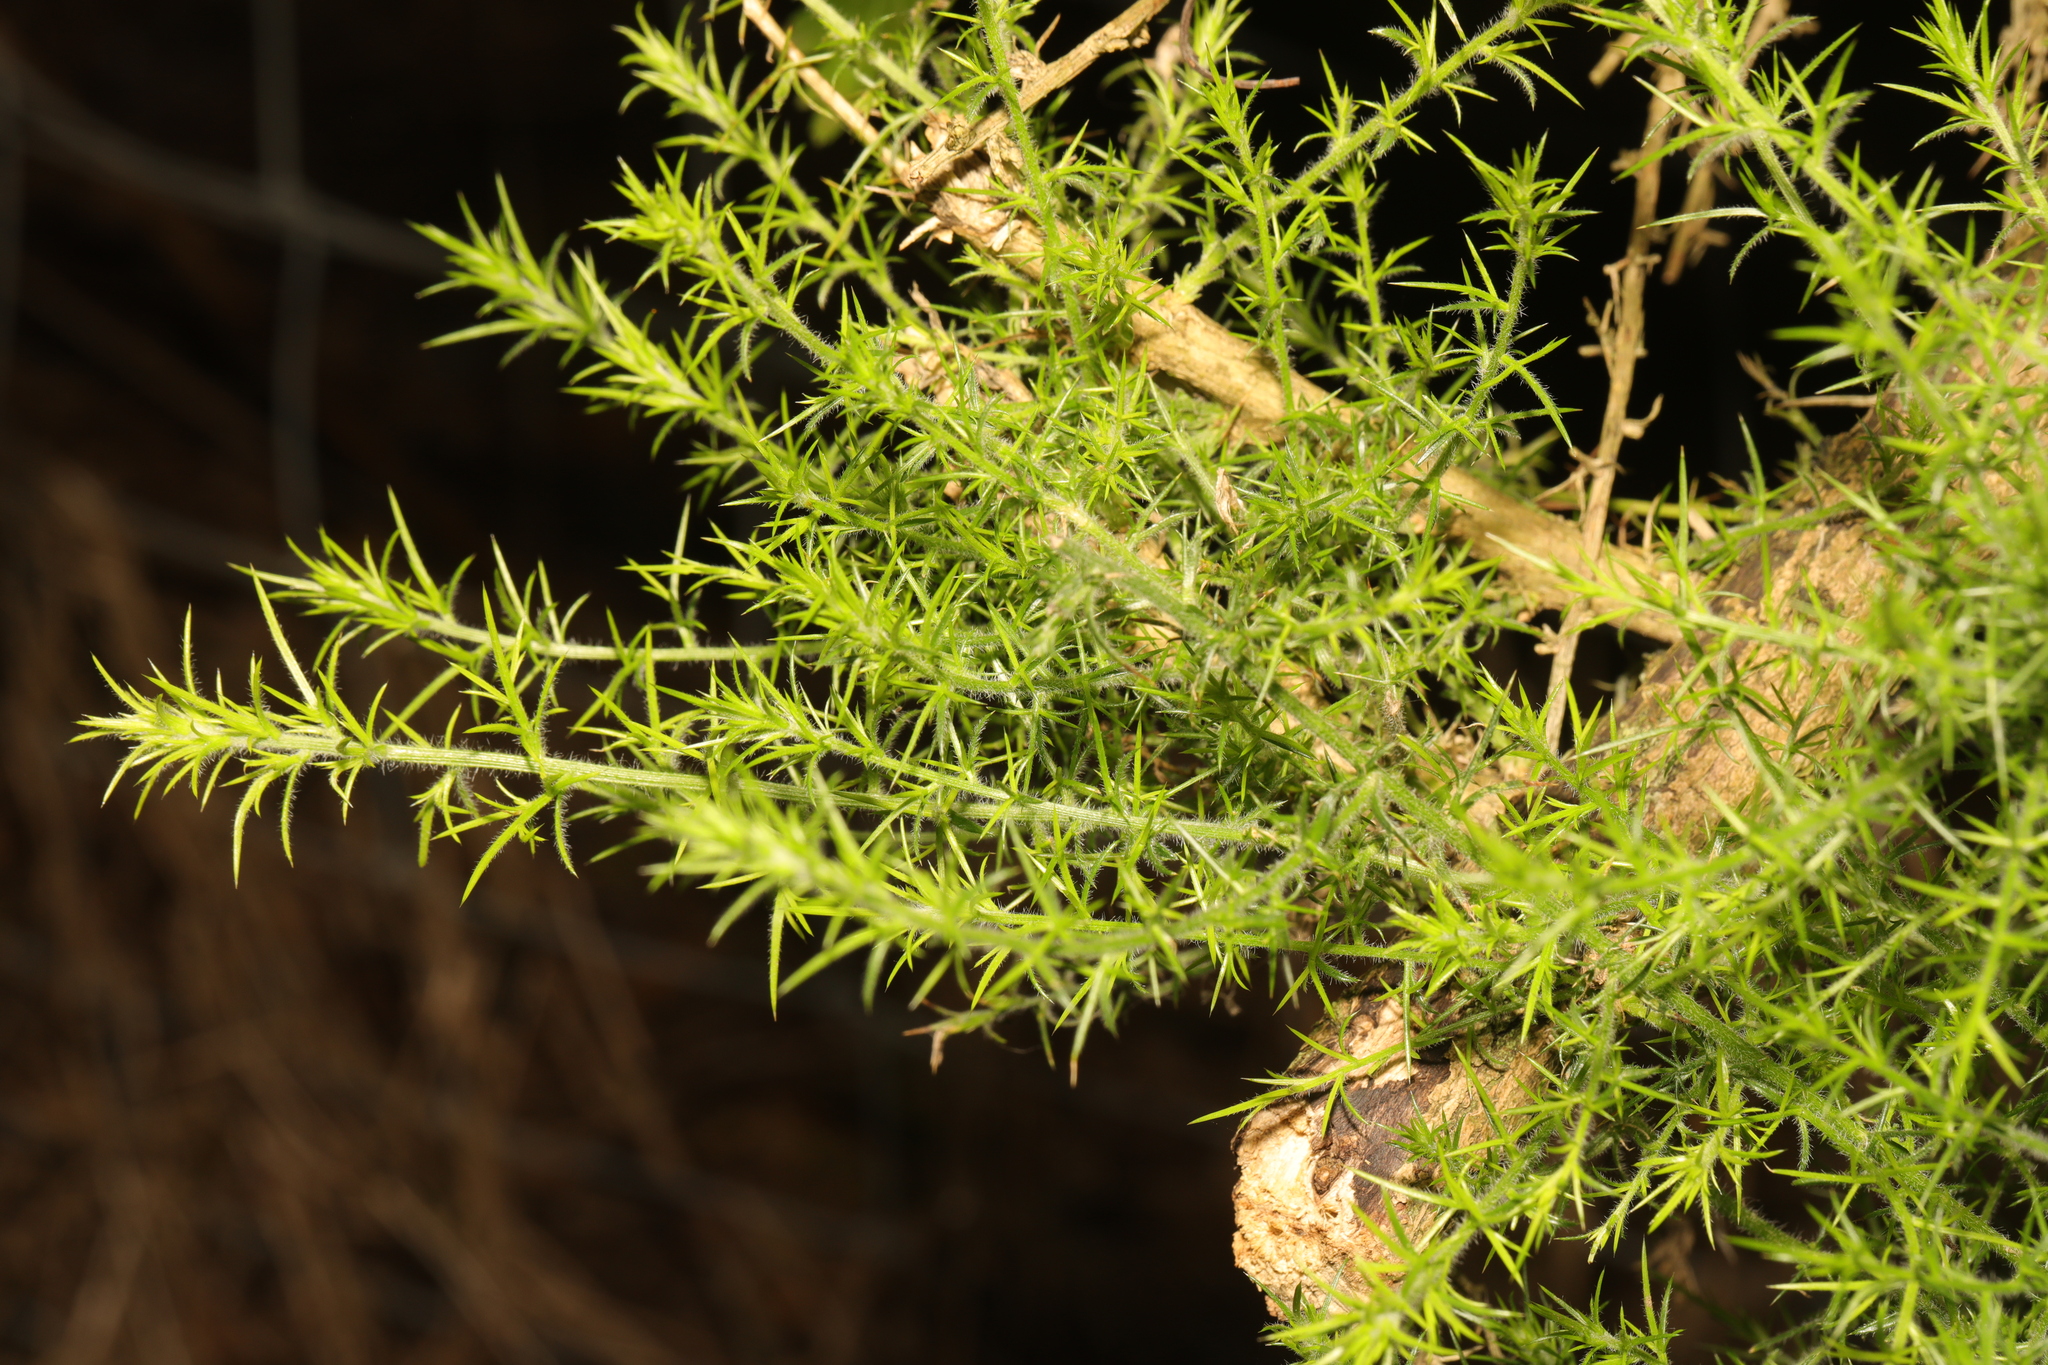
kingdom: Plantae
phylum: Tracheophyta
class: Magnoliopsida
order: Fabales
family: Fabaceae
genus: Ulex
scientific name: Ulex europaeus
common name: Common gorse
